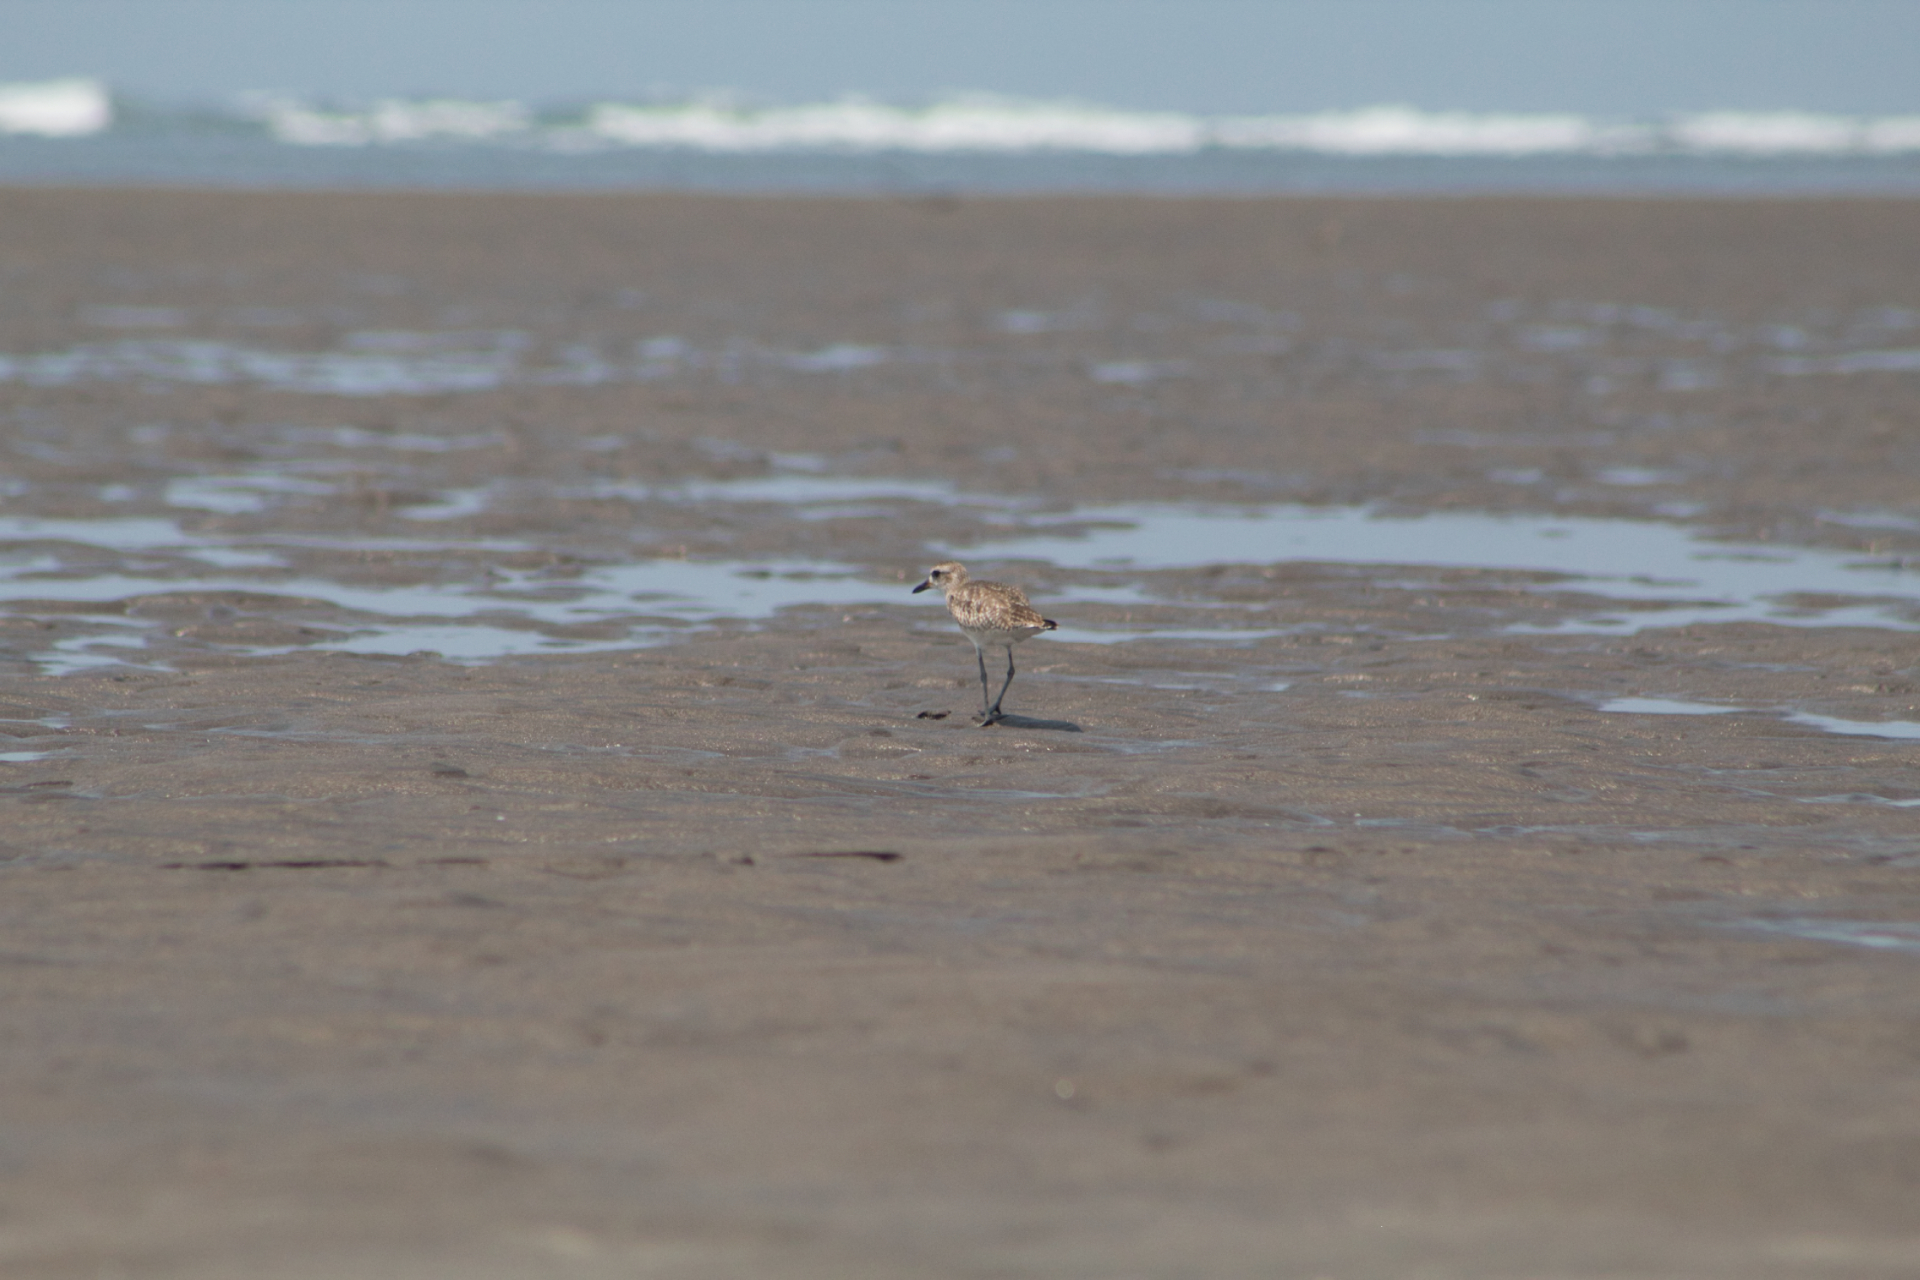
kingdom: Animalia
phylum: Chordata
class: Aves
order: Charadriiformes
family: Charadriidae
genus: Pluvialis
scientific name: Pluvialis squatarola
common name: Grey plover
